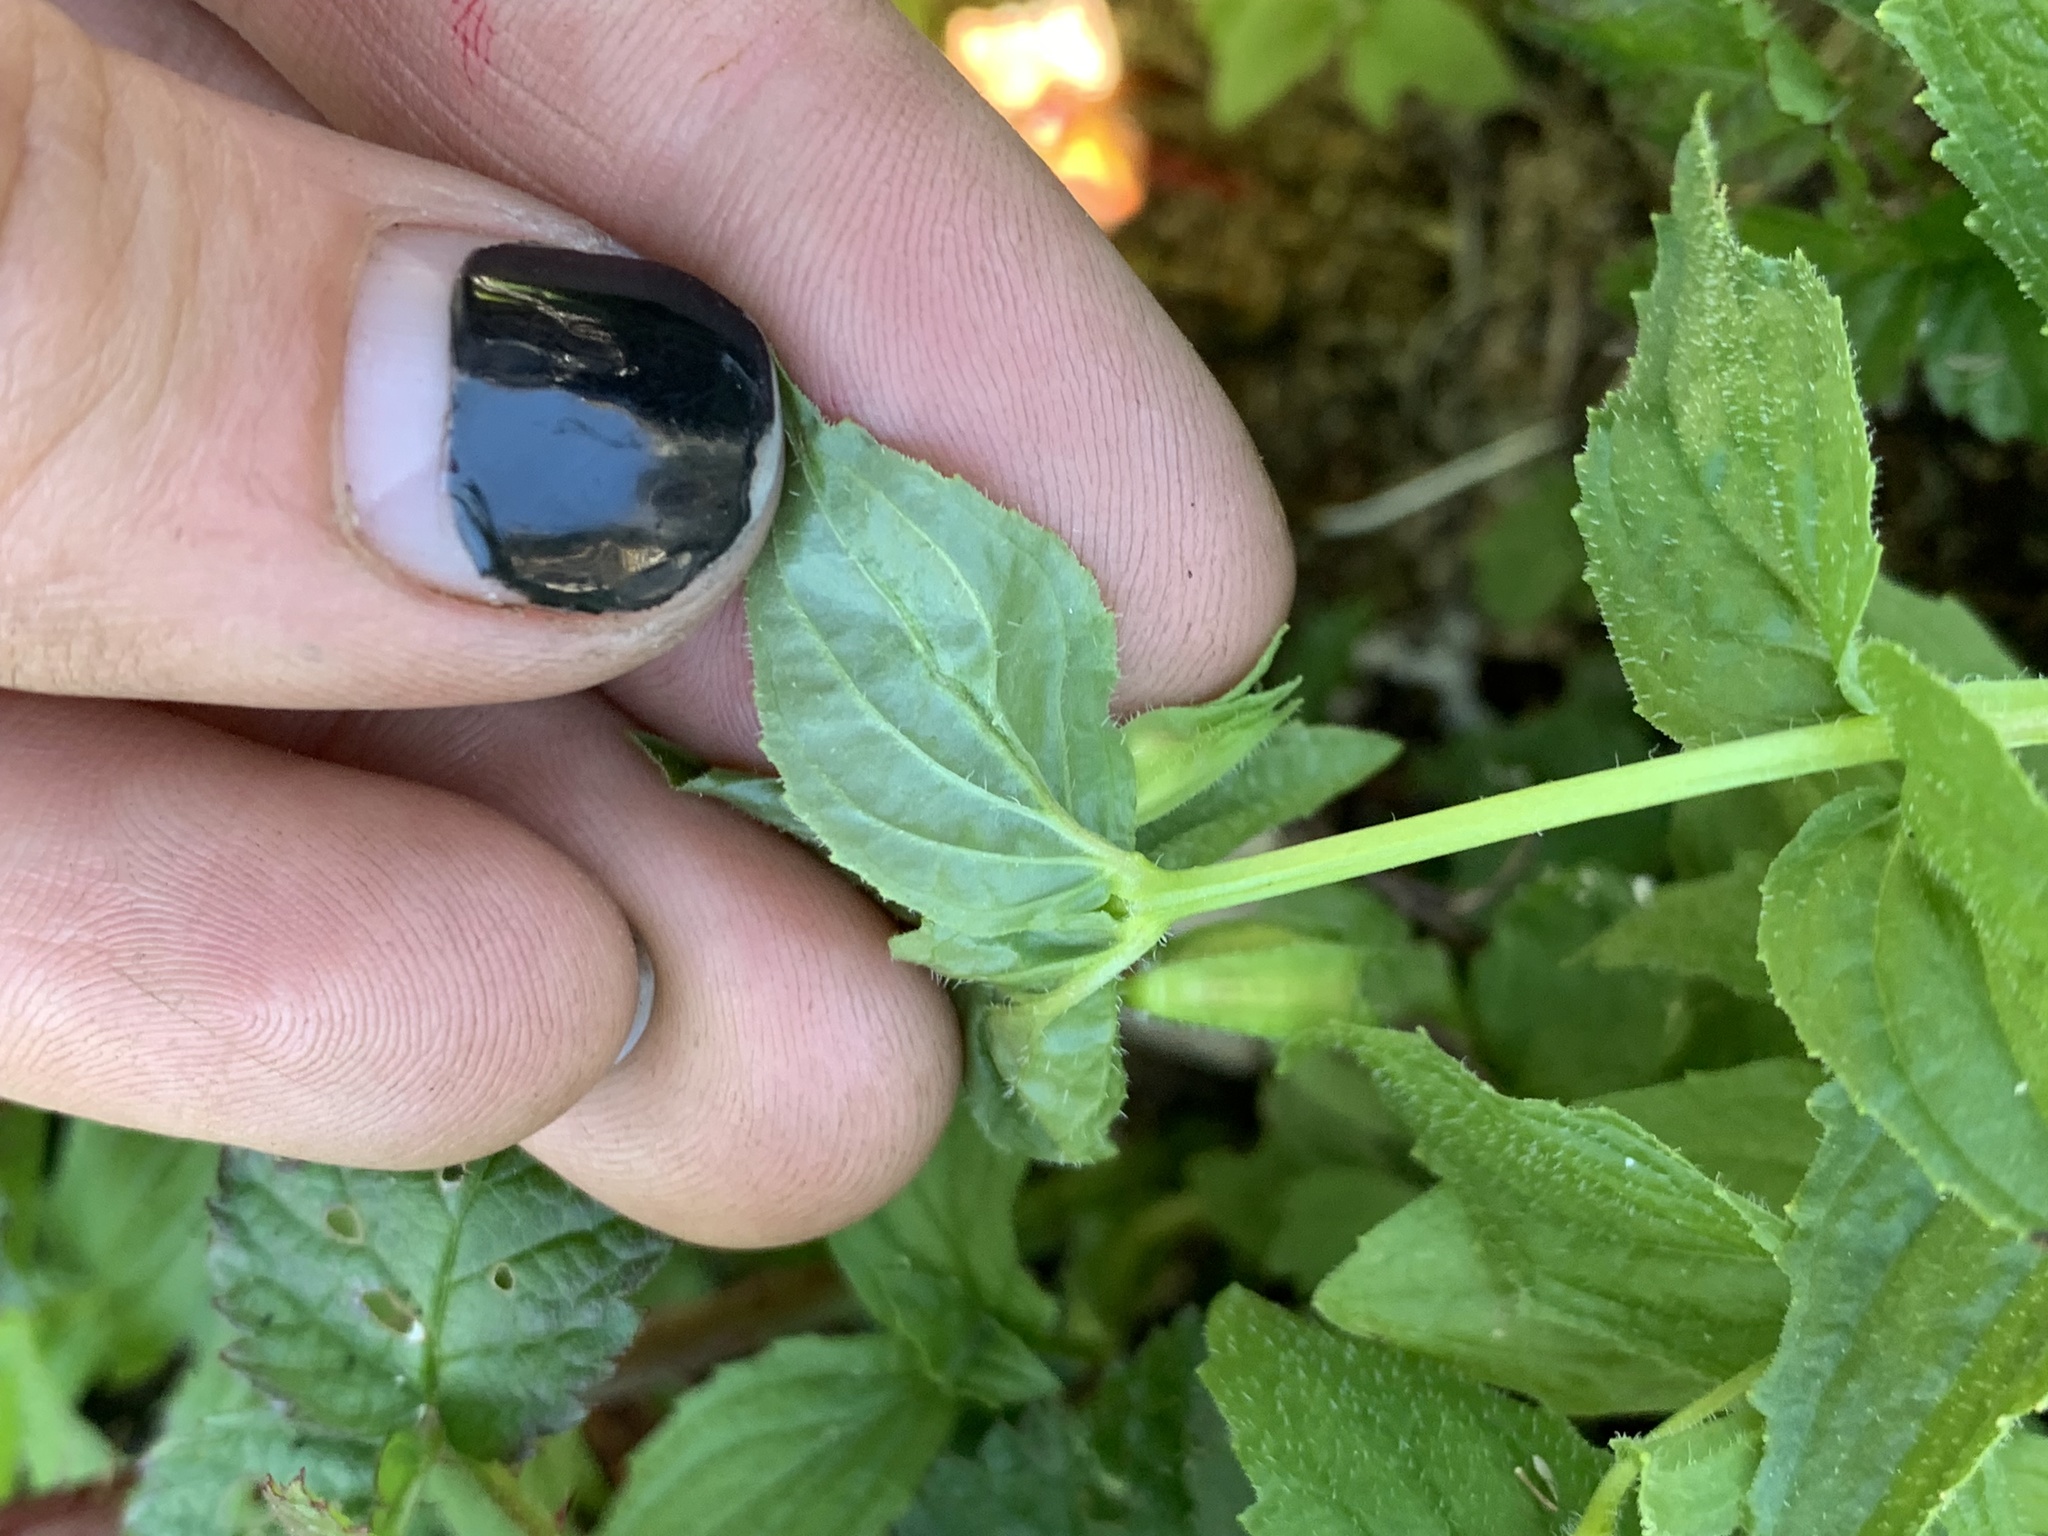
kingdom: Plantae
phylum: Tracheophyta
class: Magnoliopsida
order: Lamiales
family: Phrymaceae
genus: Erythranthe
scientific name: Erythranthe dentata
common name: Coastal monkeyflower
